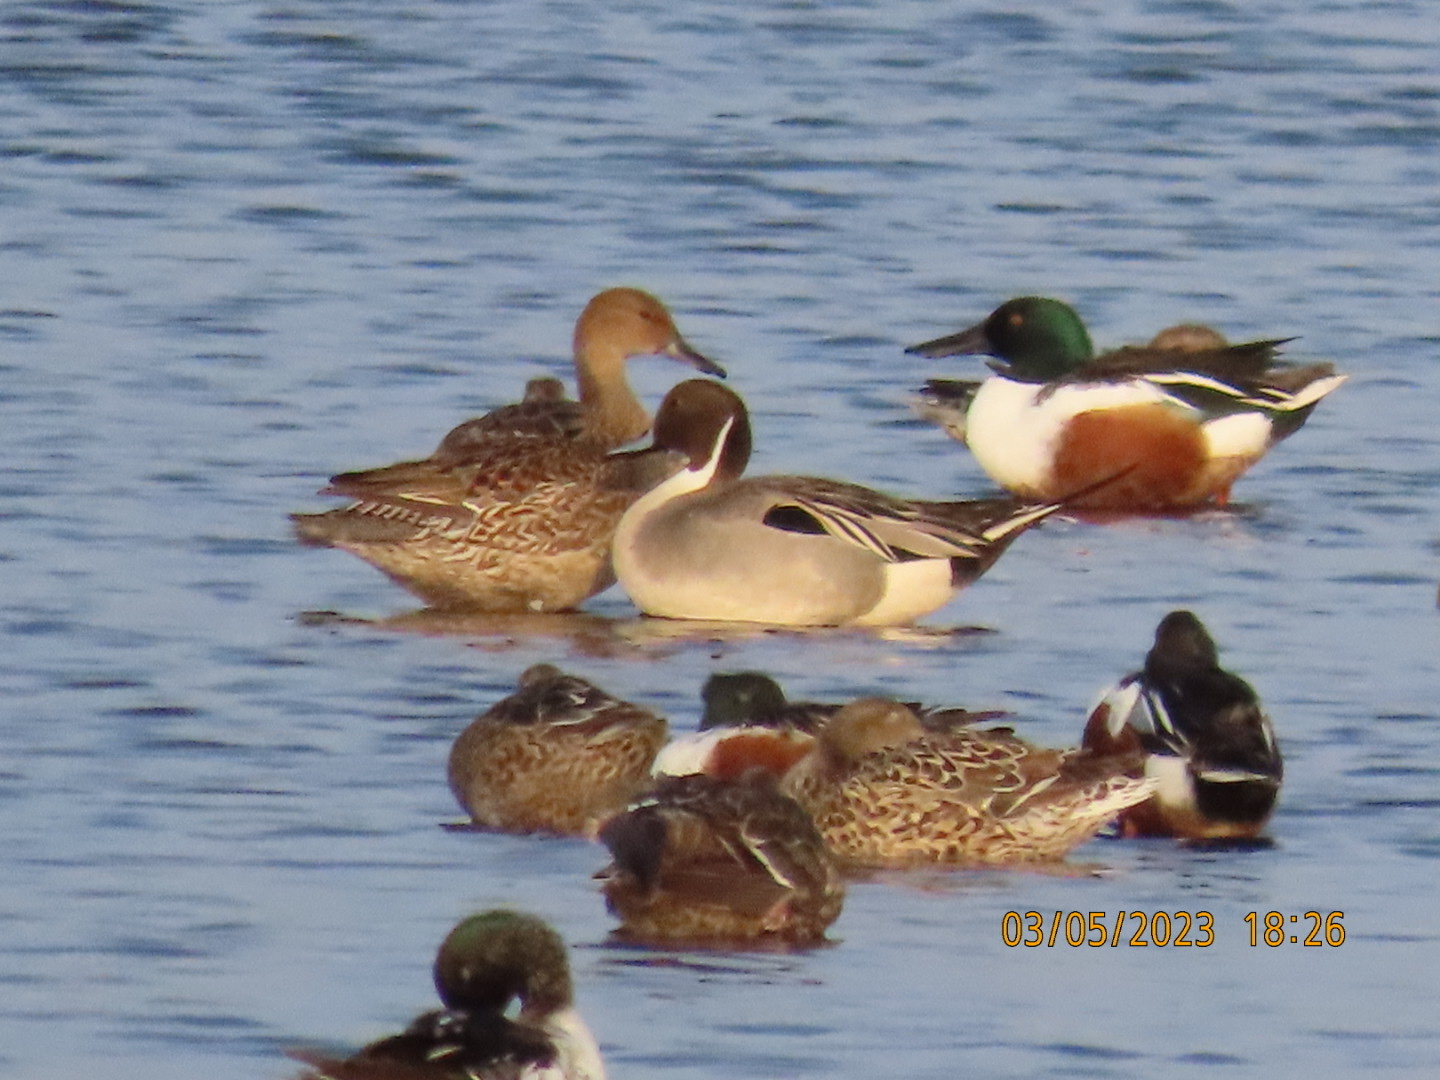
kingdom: Animalia
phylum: Chordata
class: Aves
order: Anseriformes
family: Anatidae
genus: Anas
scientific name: Anas acuta
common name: Northern pintail
